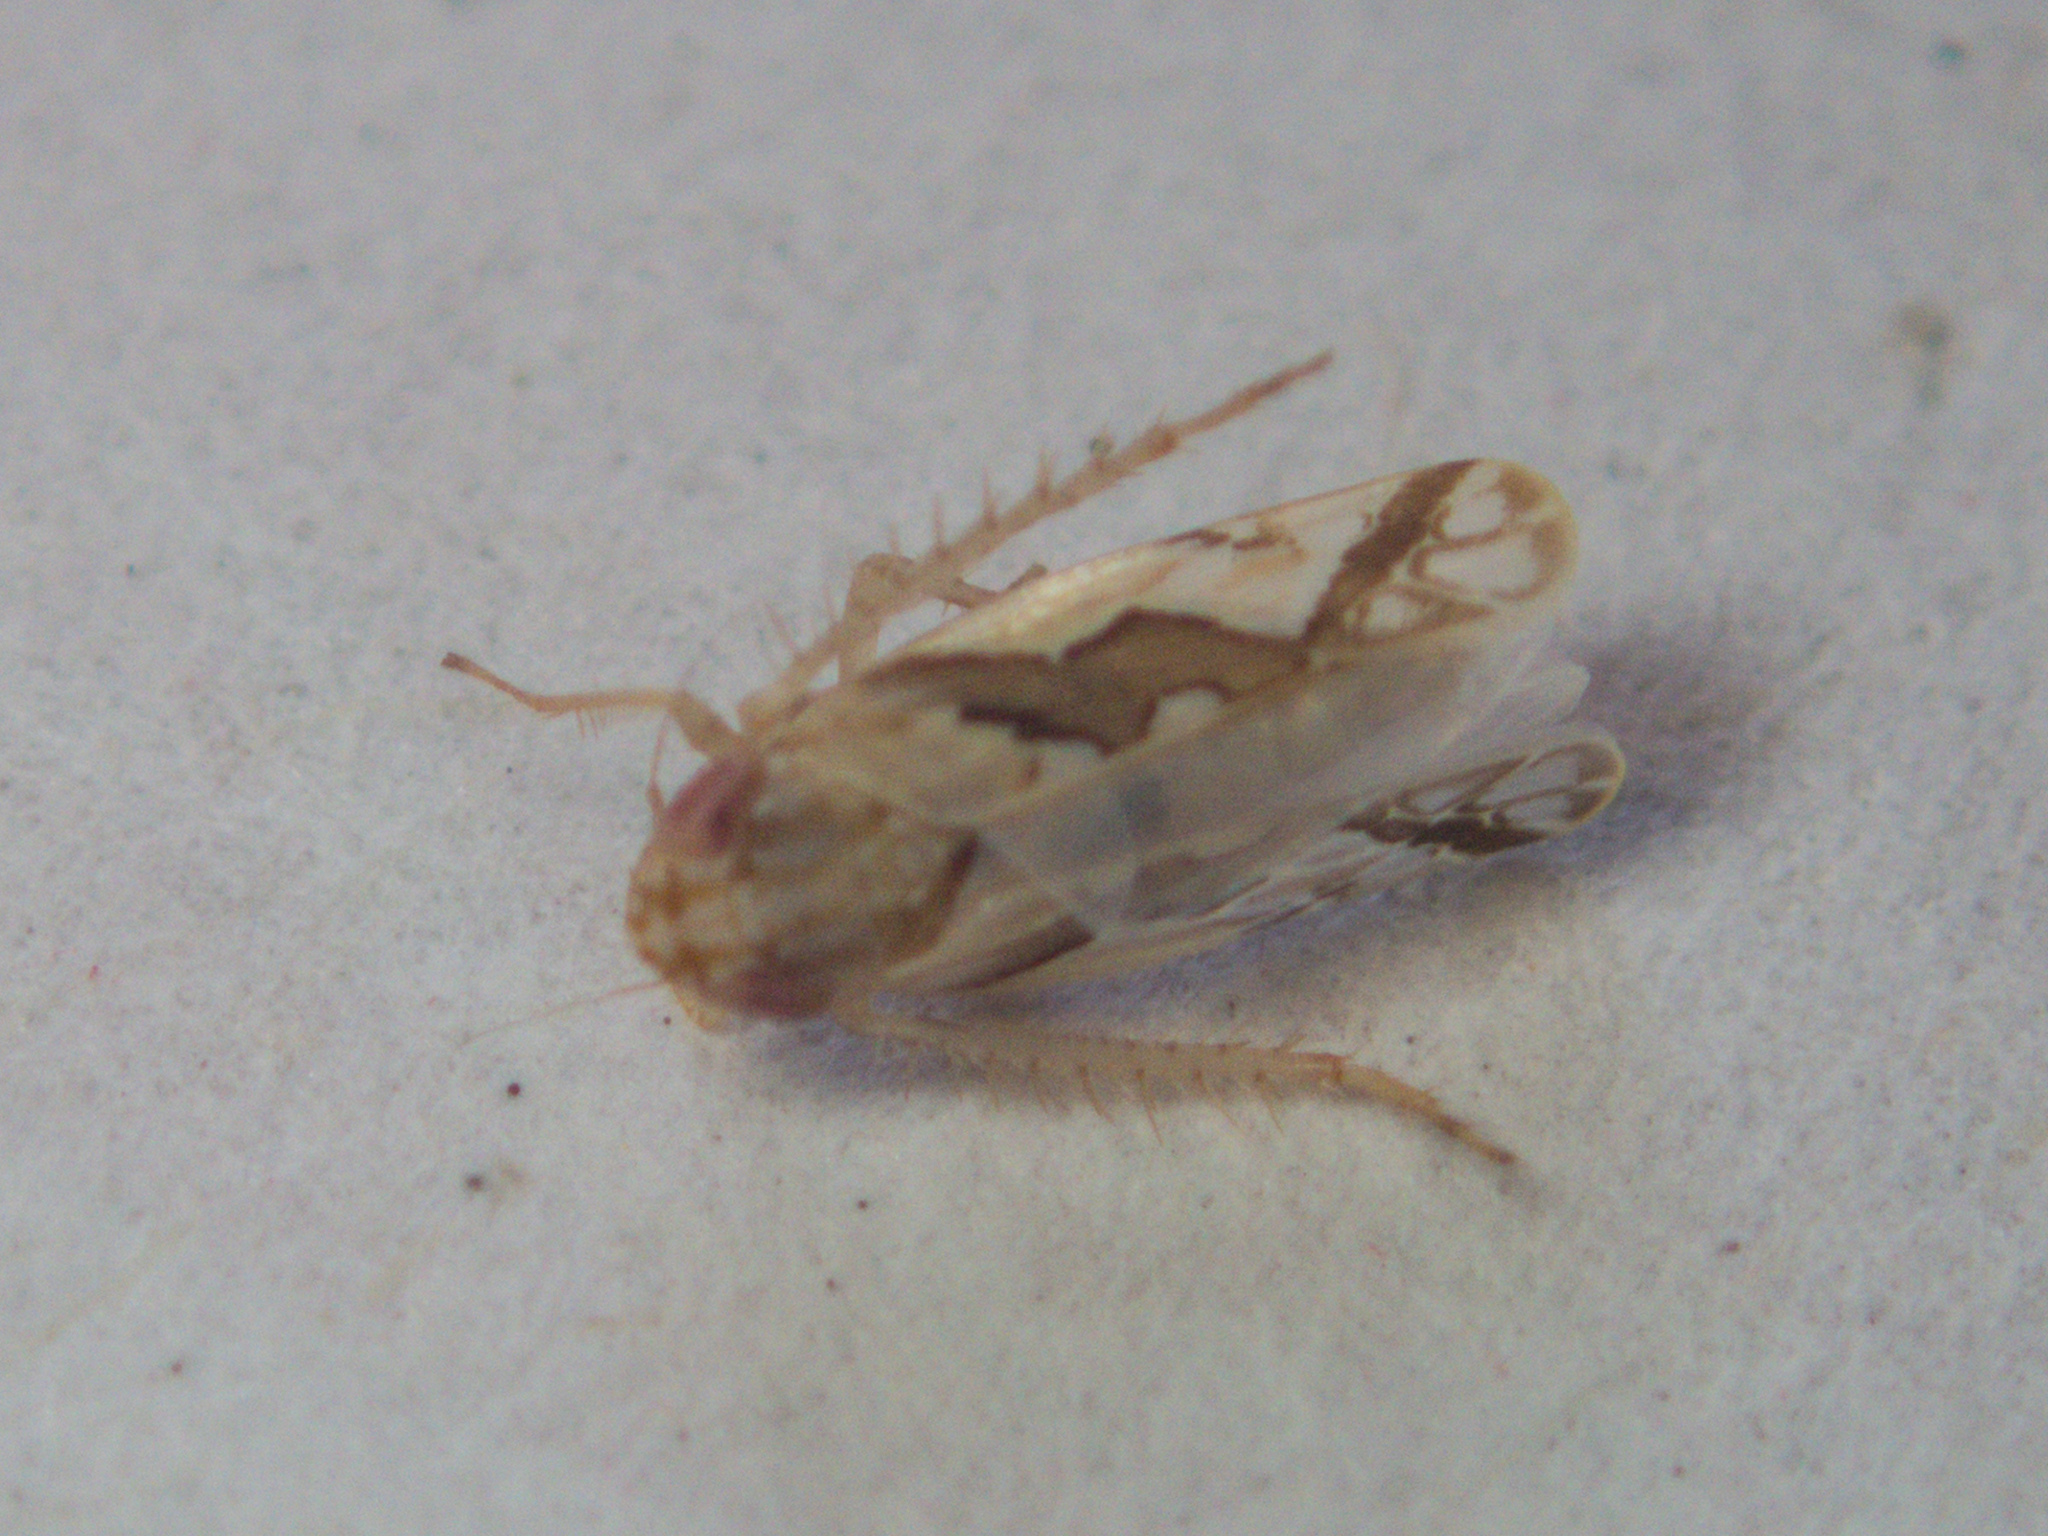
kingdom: Animalia
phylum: Arthropoda
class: Insecta
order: Hemiptera
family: Cicadellidae
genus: Maiestas
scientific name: Maiestas dorsalis
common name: Zig-zag leafhopper
